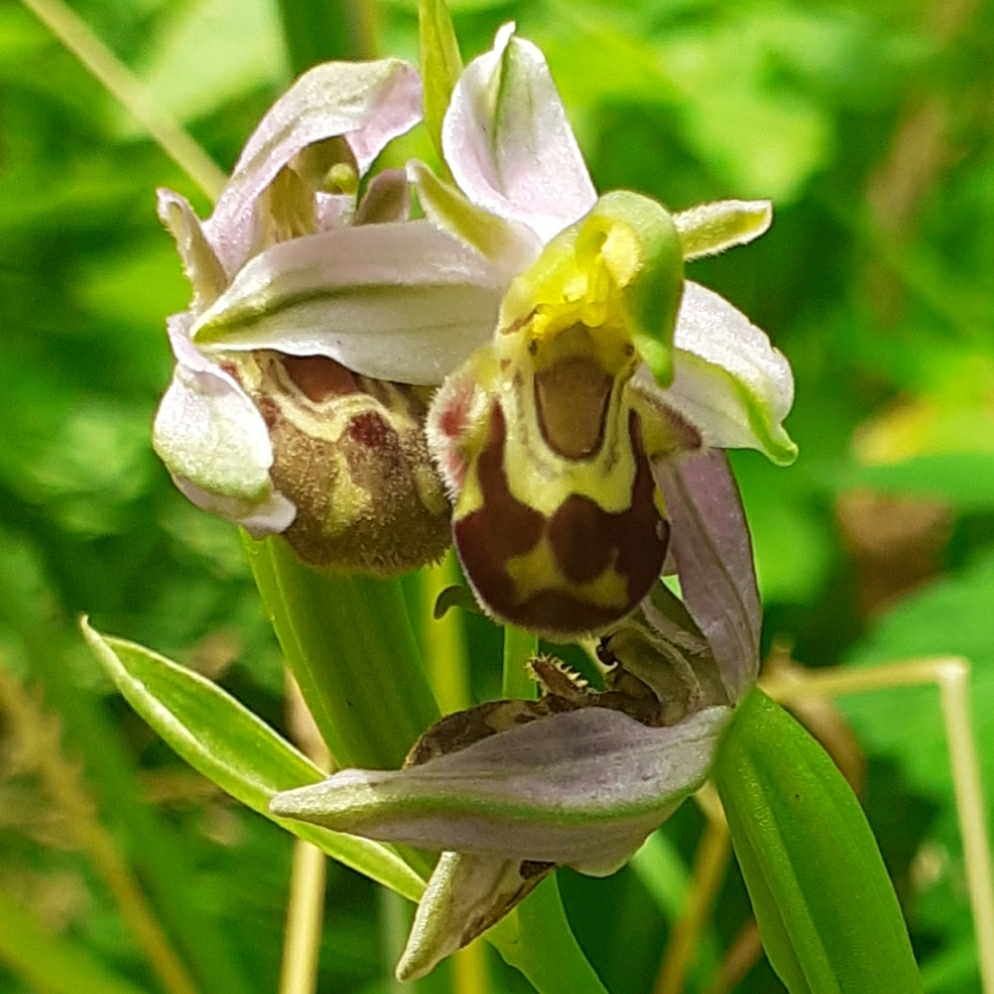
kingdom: Plantae
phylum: Tracheophyta
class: Liliopsida
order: Asparagales
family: Orchidaceae
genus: Ophrys
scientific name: Ophrys apifera
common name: Bee orchid
